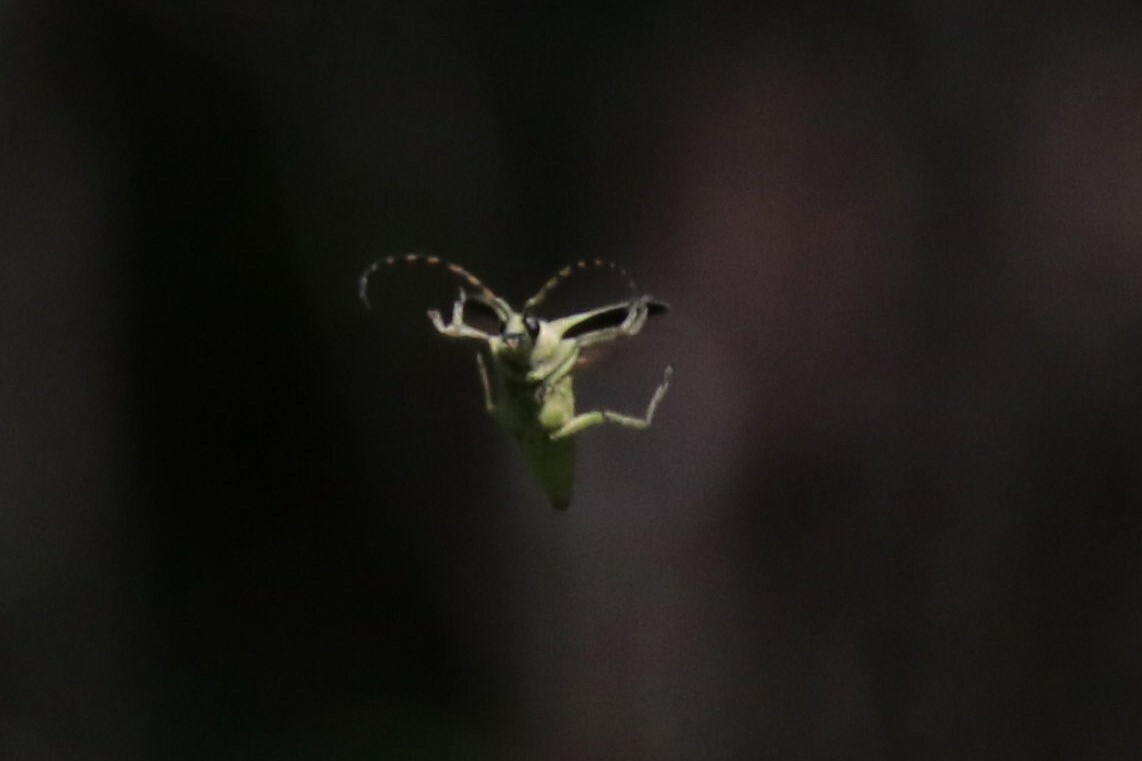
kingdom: Animalia
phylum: Arthropoda
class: Insecta
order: Coleoptera
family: Cerambycidae
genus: Lepturobosca
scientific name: Lepturobosca virens
